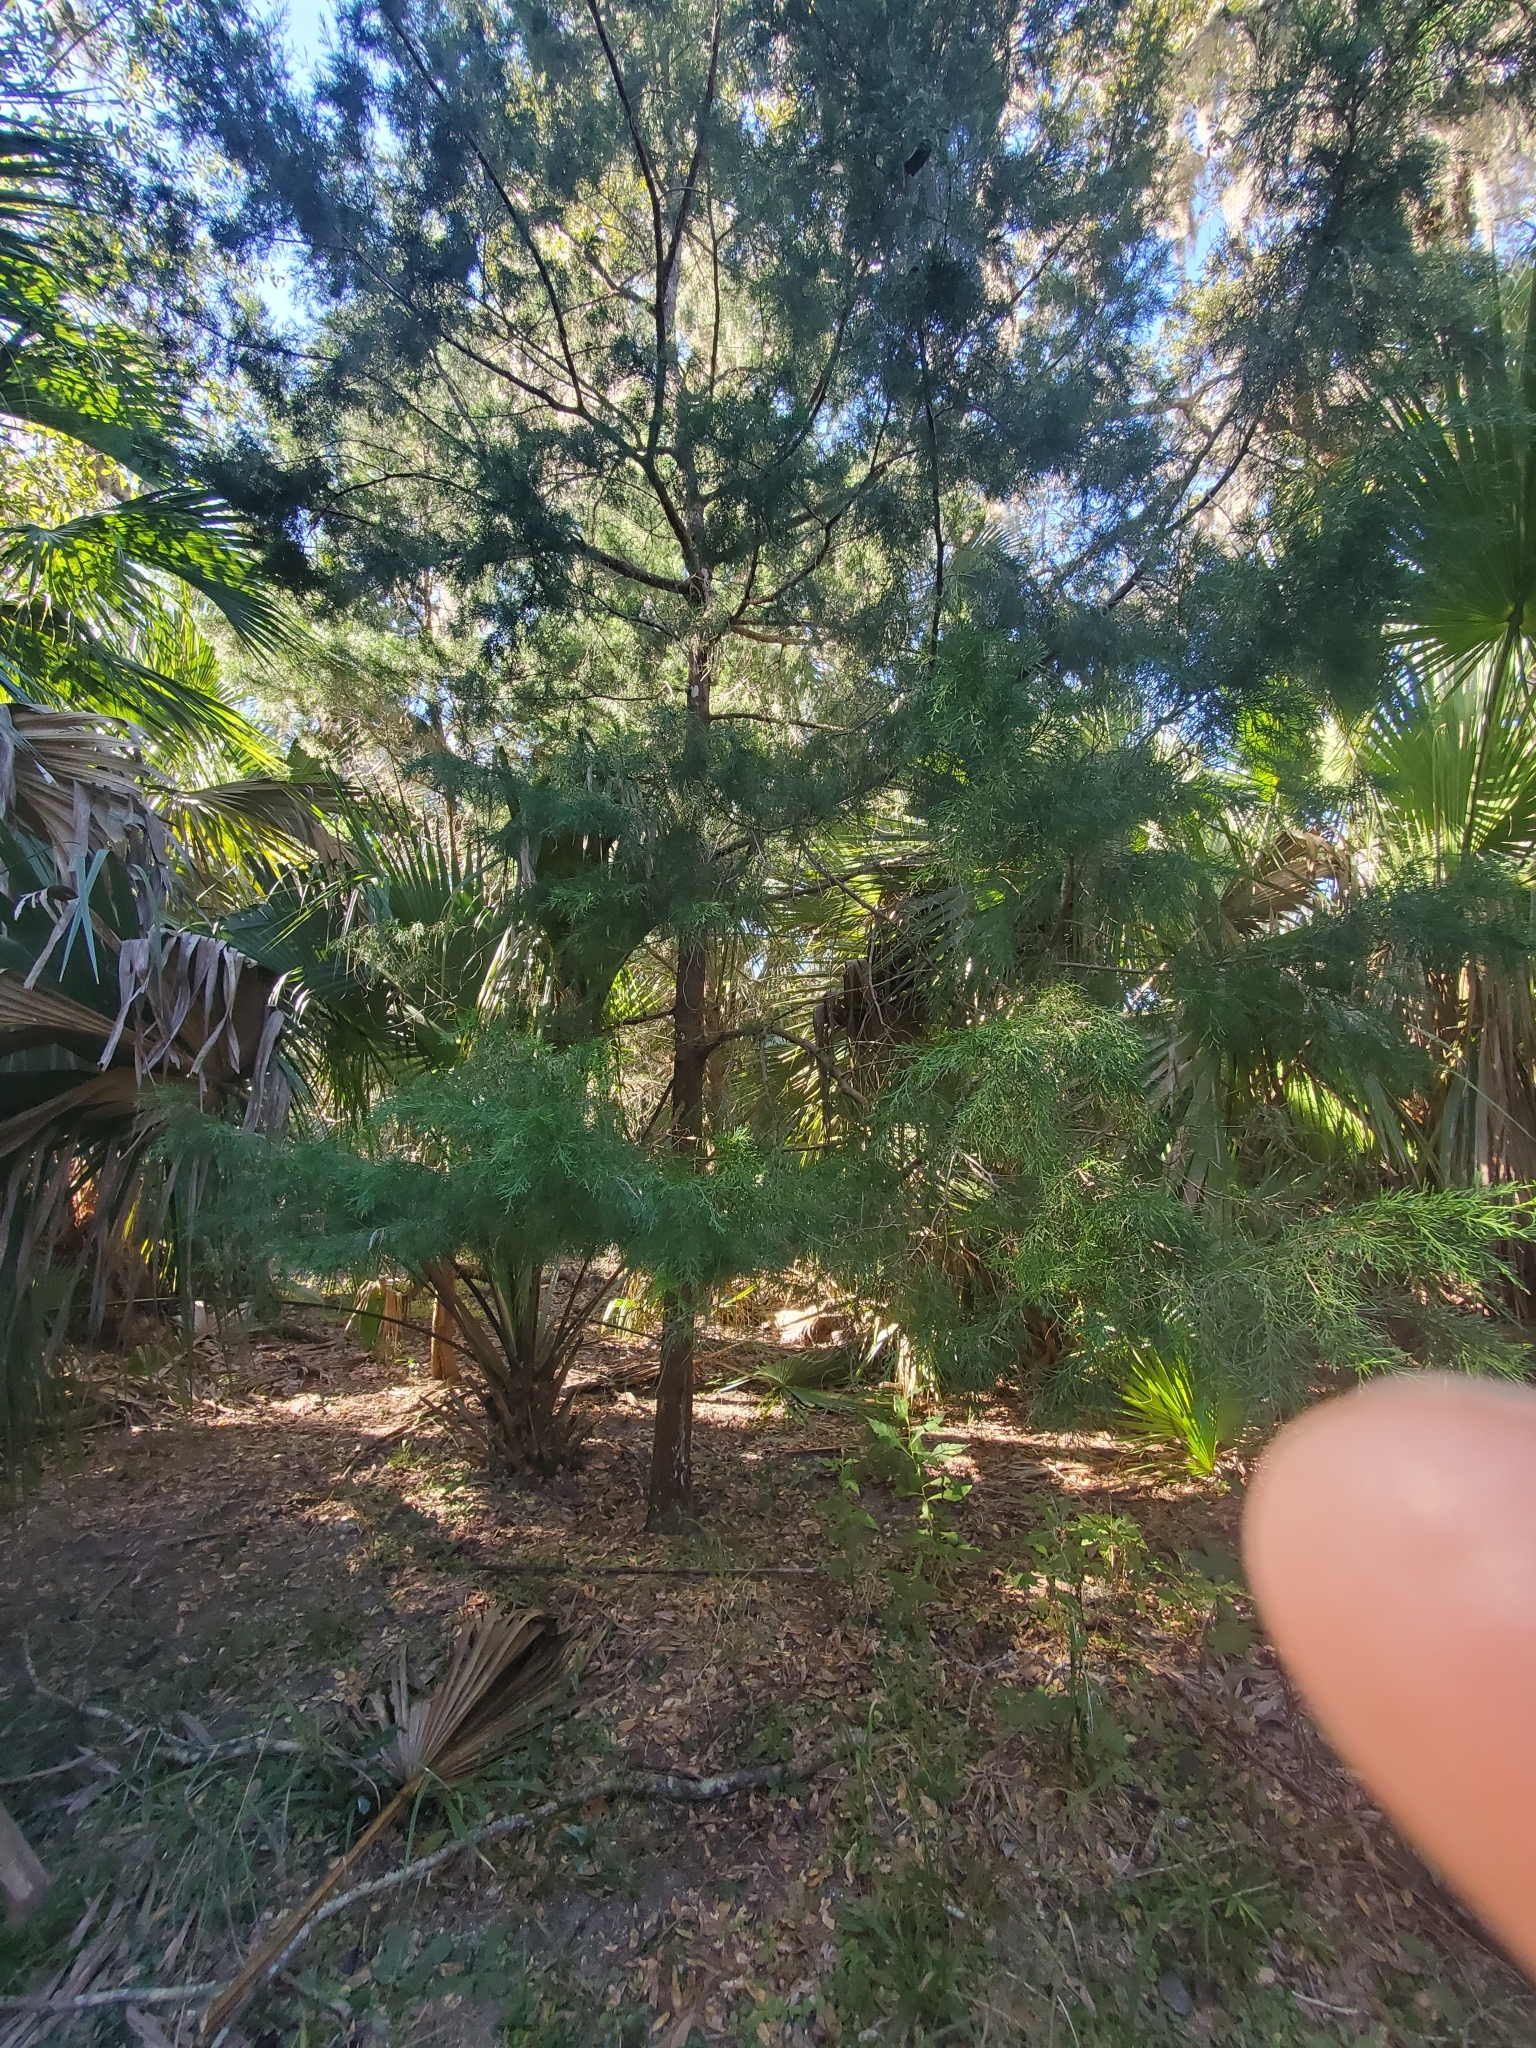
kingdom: Plantae
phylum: Tracheophyta
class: Pinopsida
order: Pinales
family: Cupressaceae
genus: Juniperus
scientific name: Juniperus virginiana
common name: Red juniper
